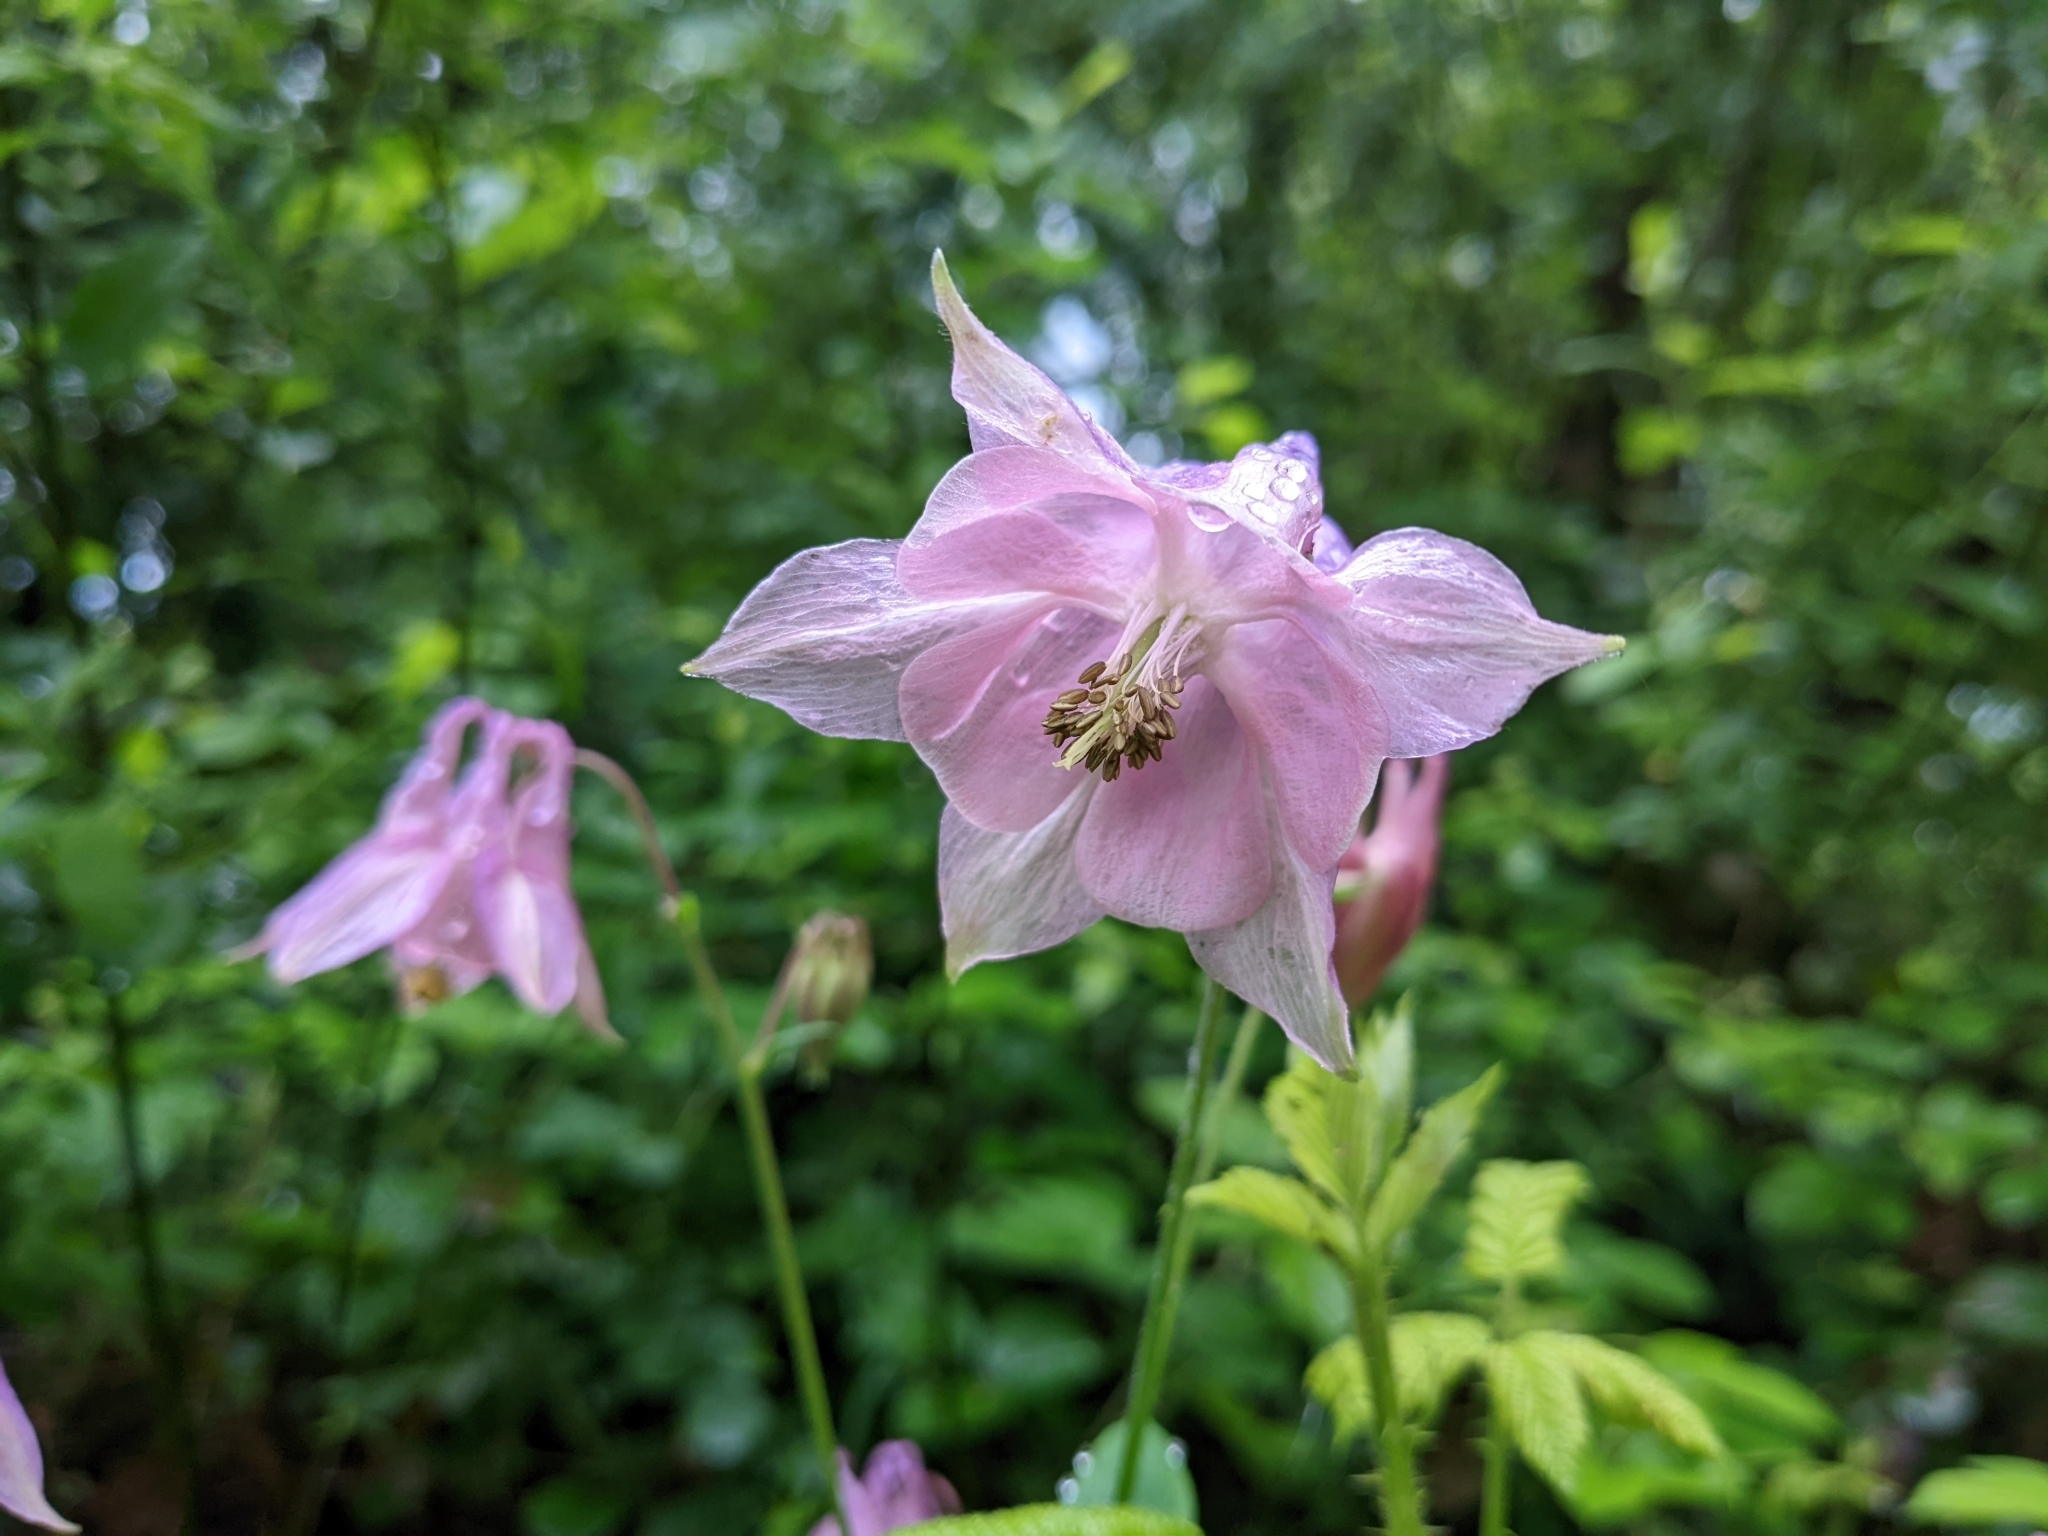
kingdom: Plantae
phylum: Tracheophyta
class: Magnoliopsida
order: Ranunculales
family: Ranunculaceae
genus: Aquilegia
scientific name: Aquilegia vulgaris
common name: Columbine
